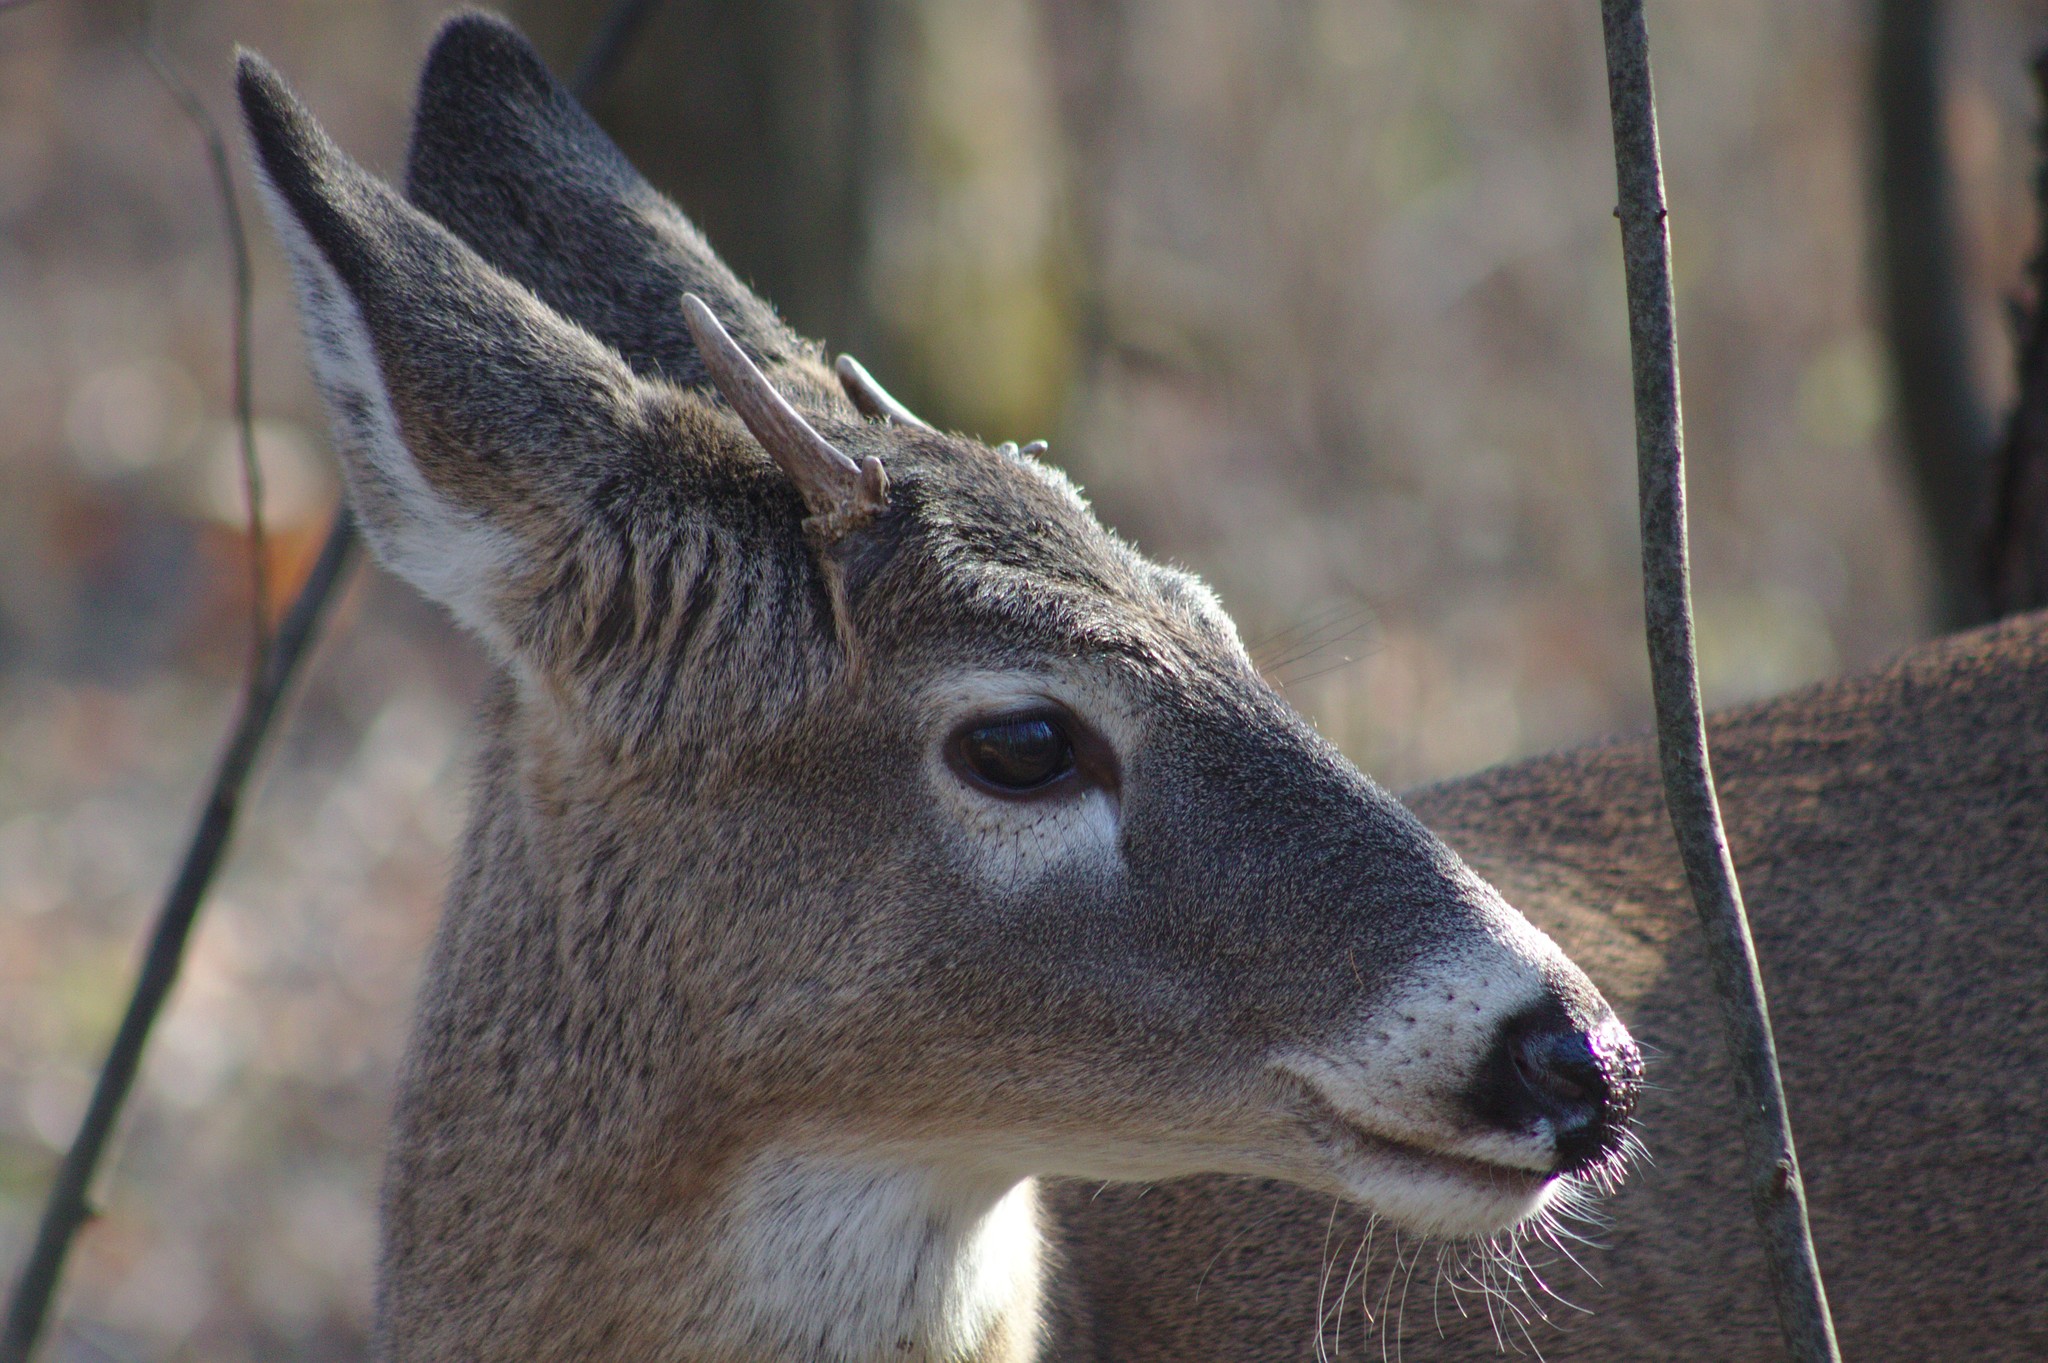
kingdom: Animalia
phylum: Chordata
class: Mammalia
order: Artiodactyla
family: Cervidae
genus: Odocoileus
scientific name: Odocoileus virginianus
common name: White-tailed deer
